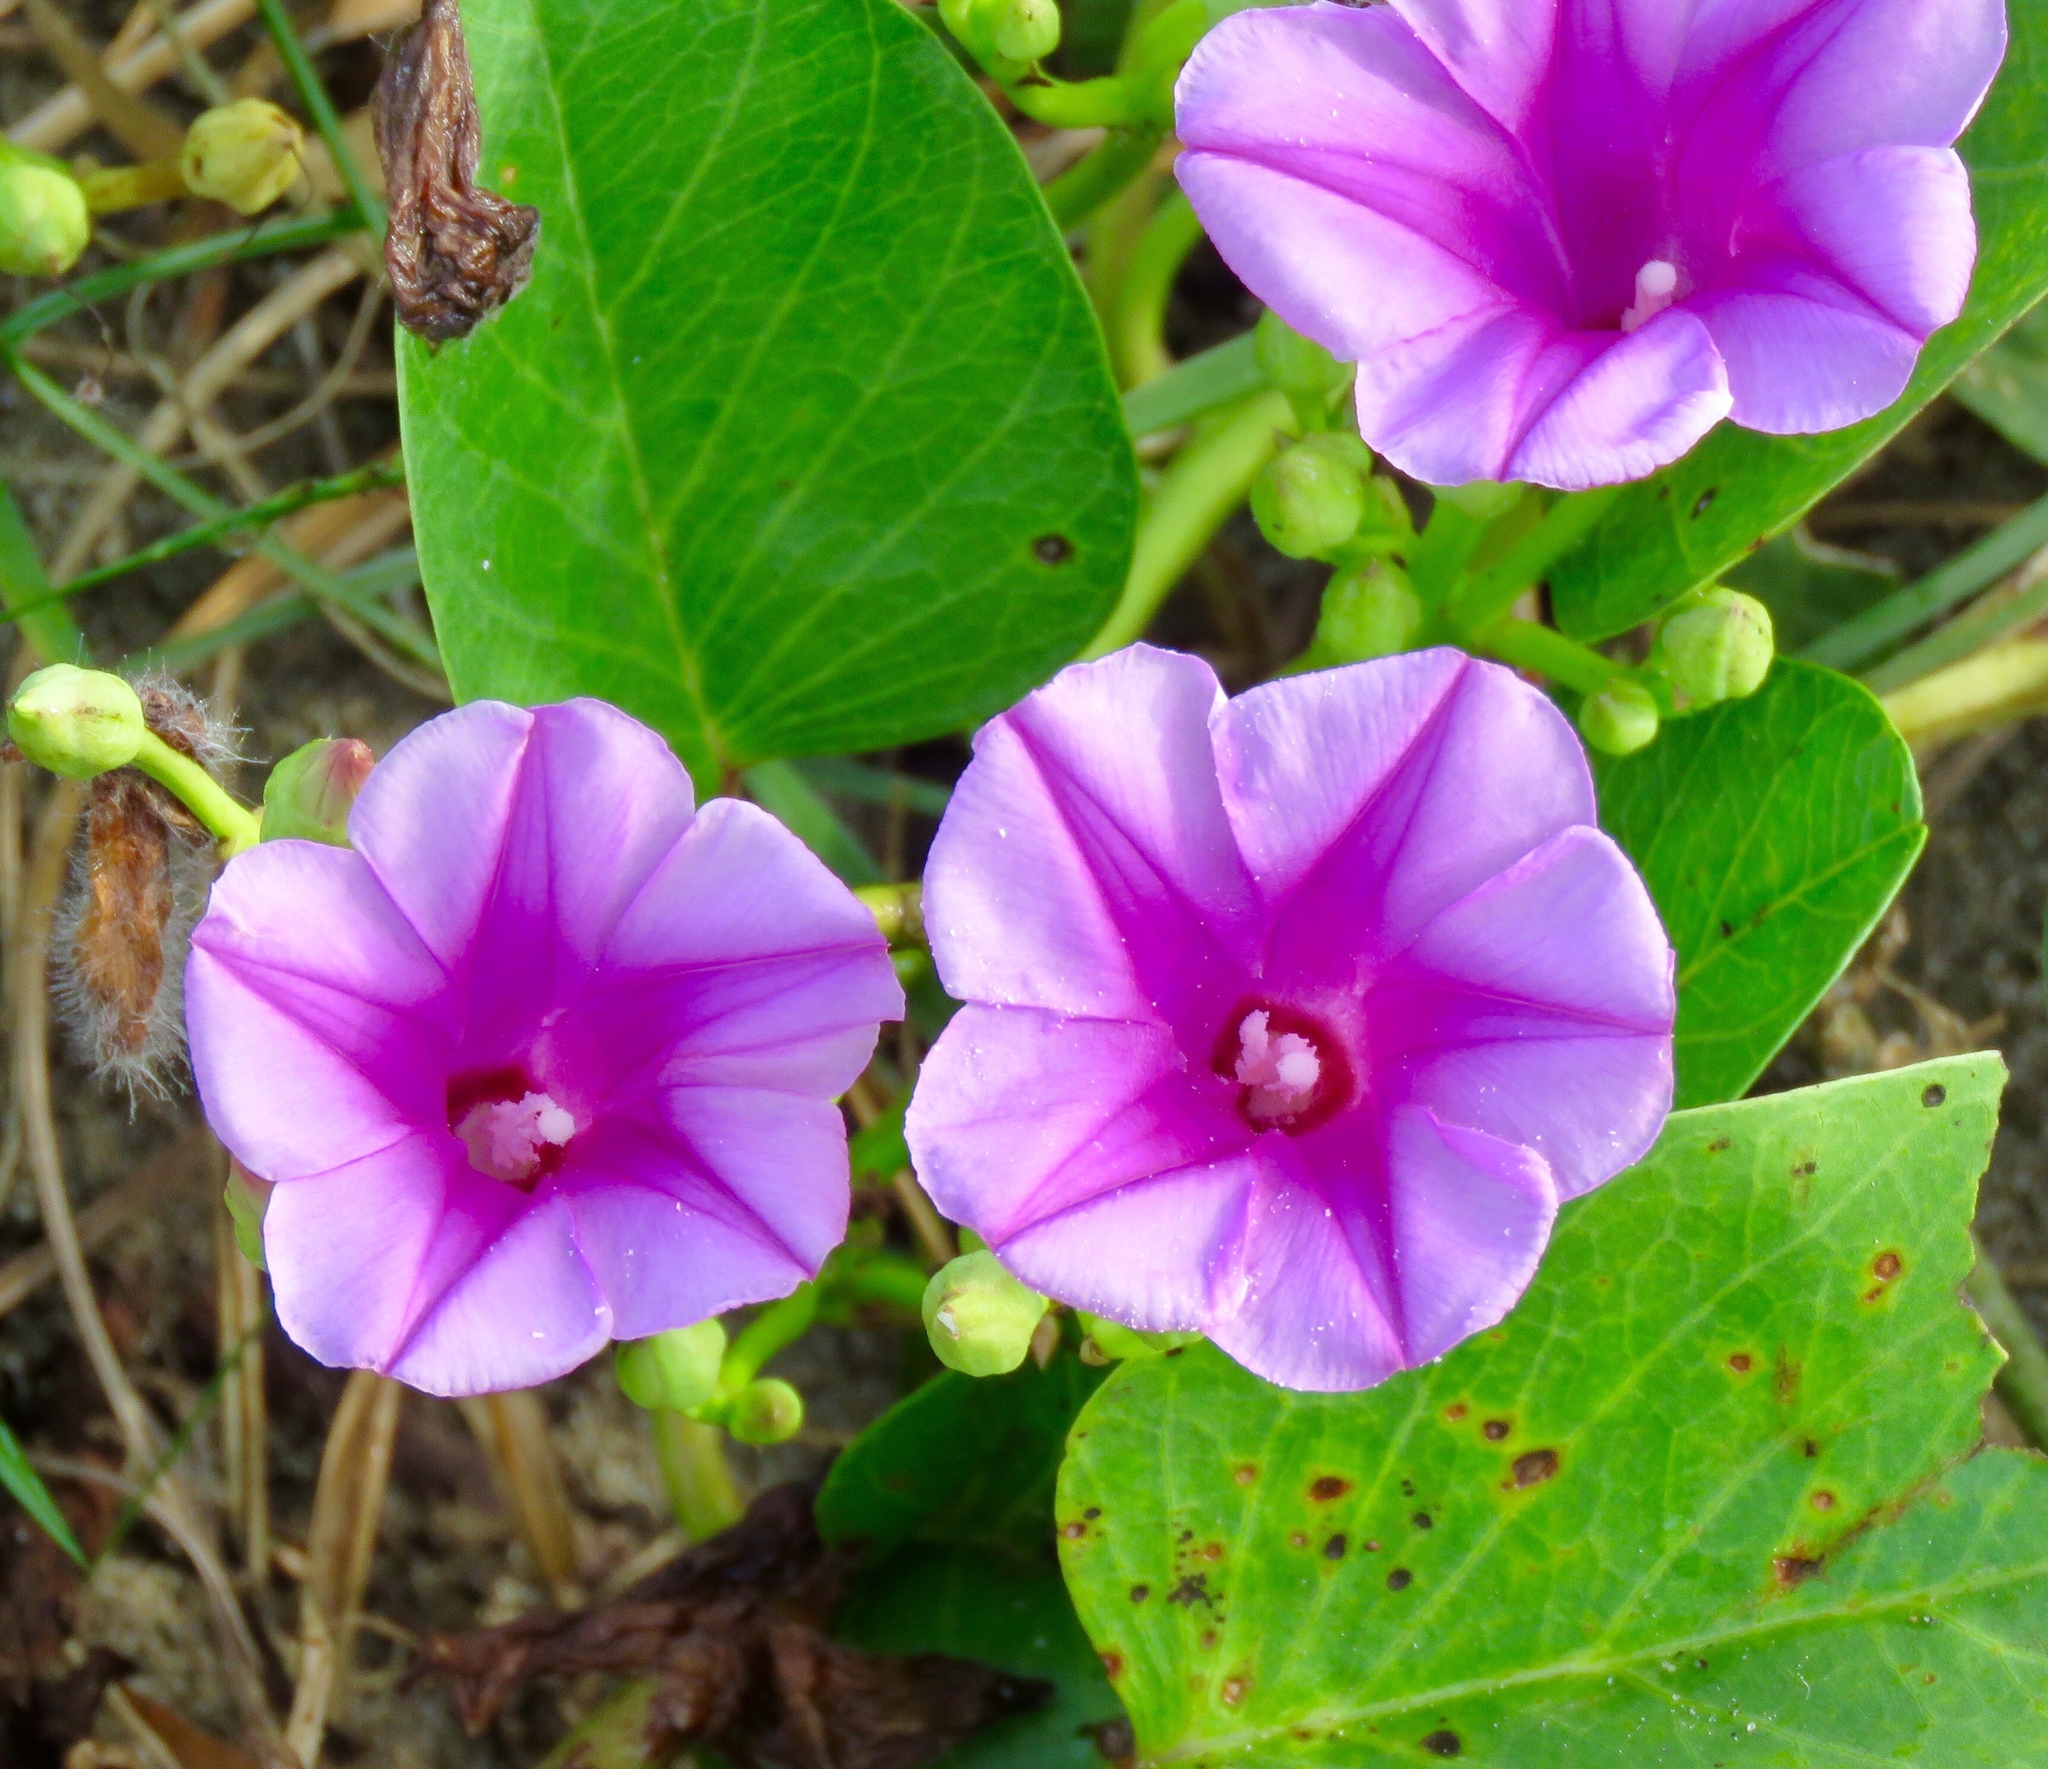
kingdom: Plantae
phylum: Tracheophyta
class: Magnoliopsida
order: Solanales
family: Convolvulaceae
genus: Ipomoea
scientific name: Ipomoea pes-caprae
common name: Beach morning glory
